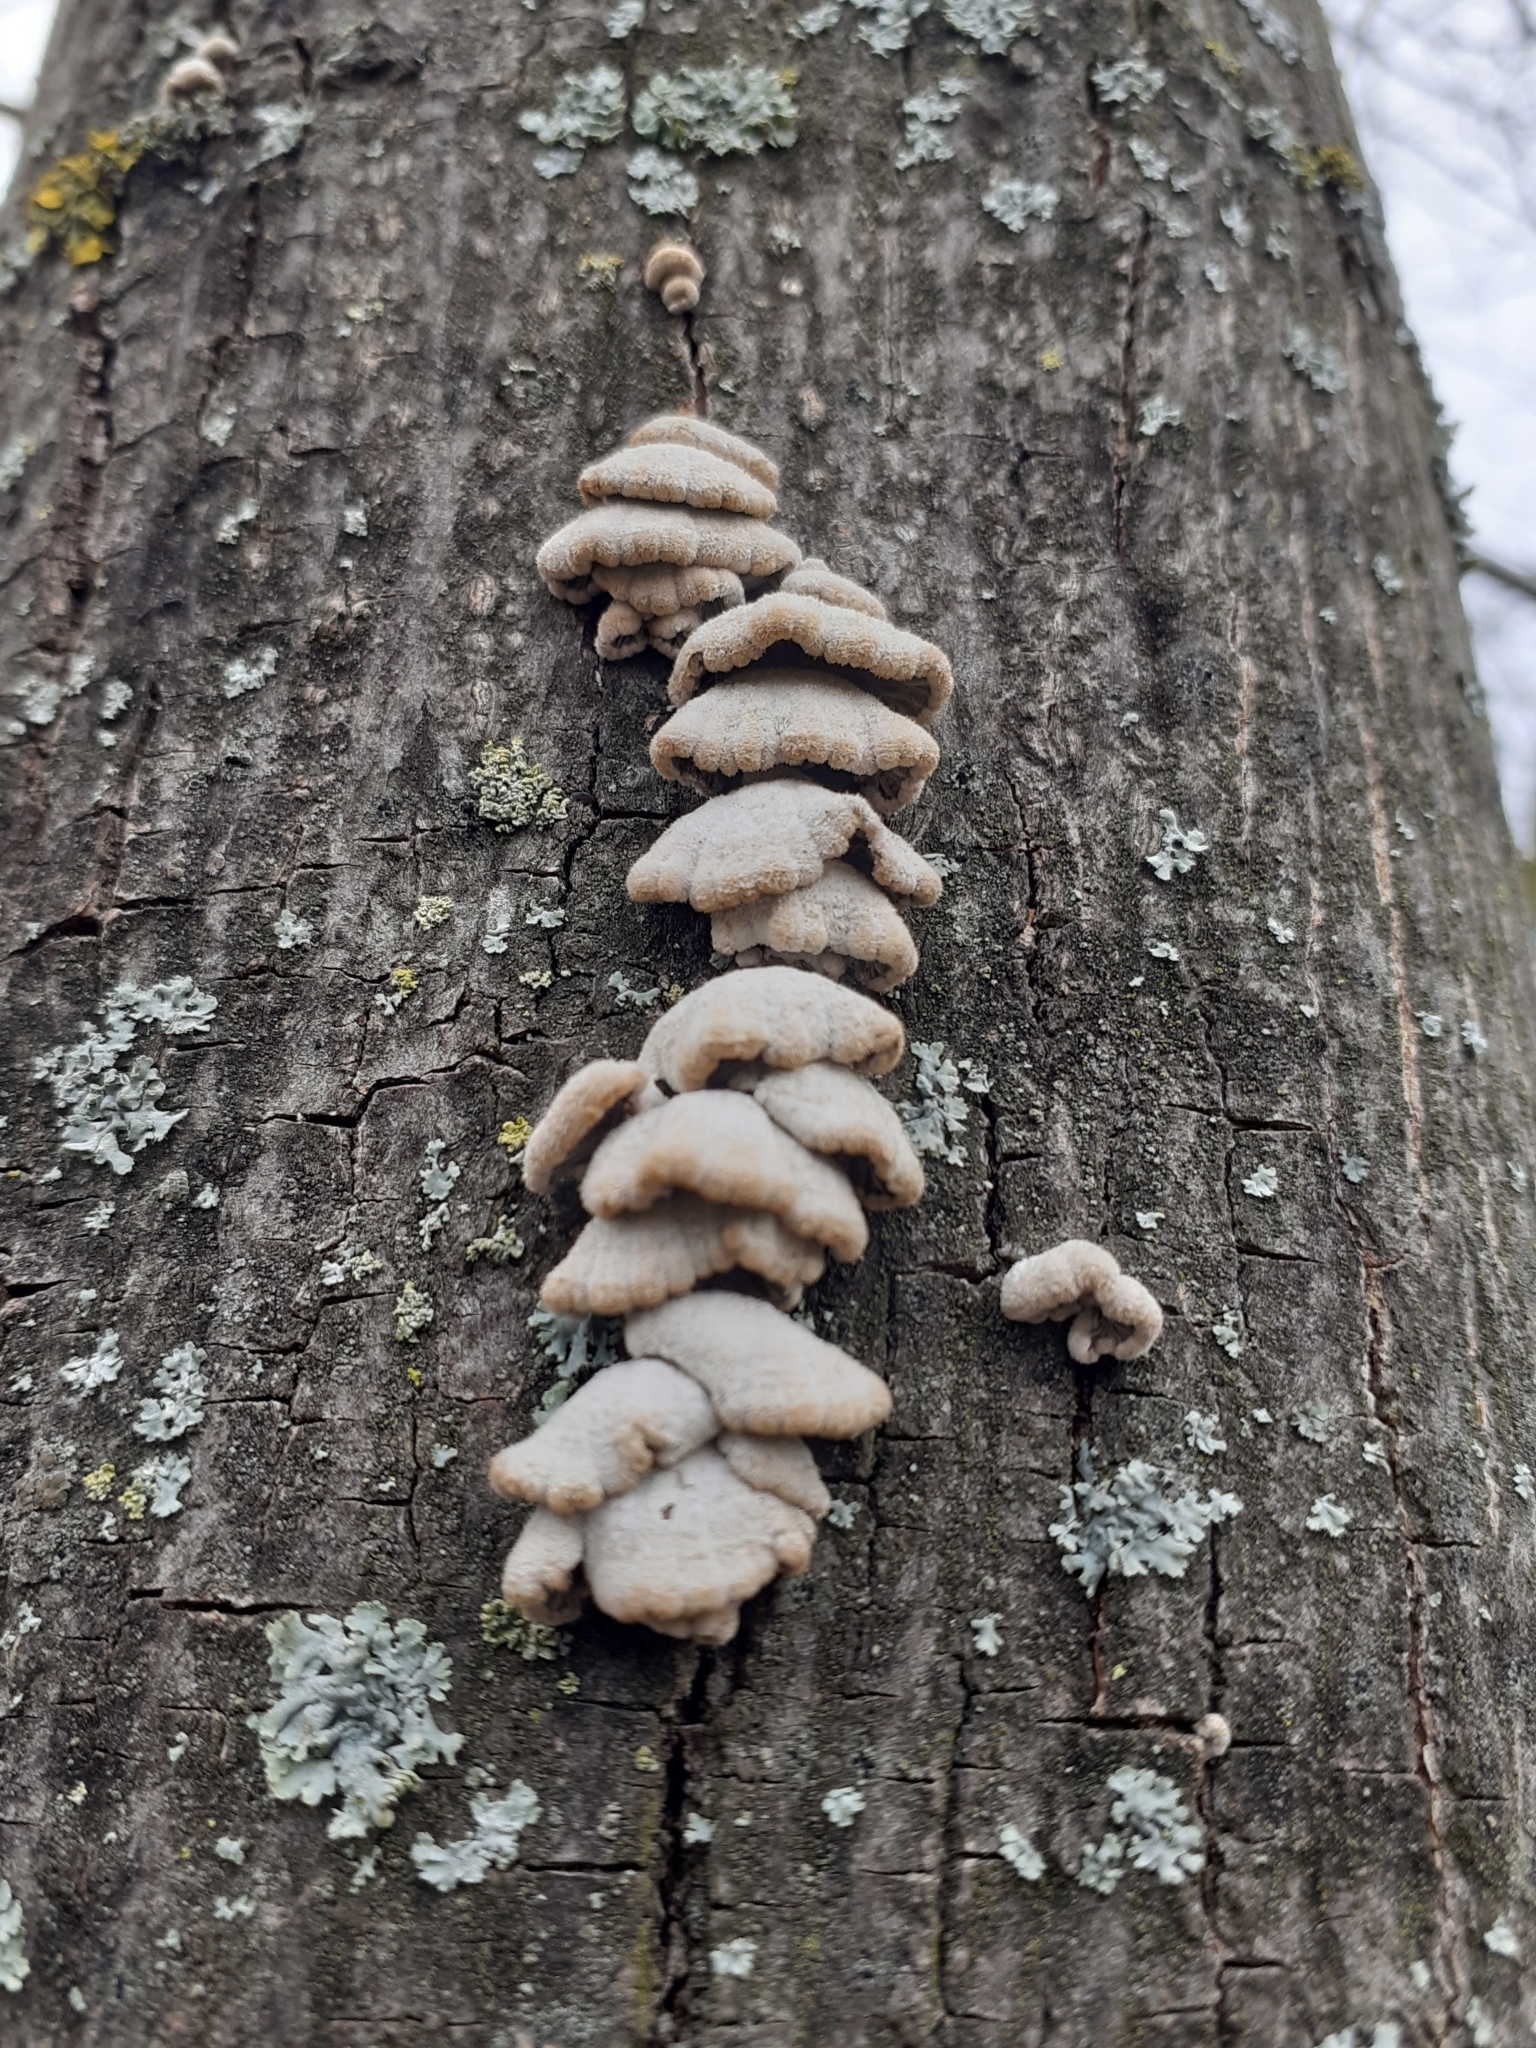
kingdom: Fungi
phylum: Basidiomycota
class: Agaricomycetes
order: Agaricales
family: Schizophyllaceae
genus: Schizophyllum
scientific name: Schizophyllum commune
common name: Common porecrust
